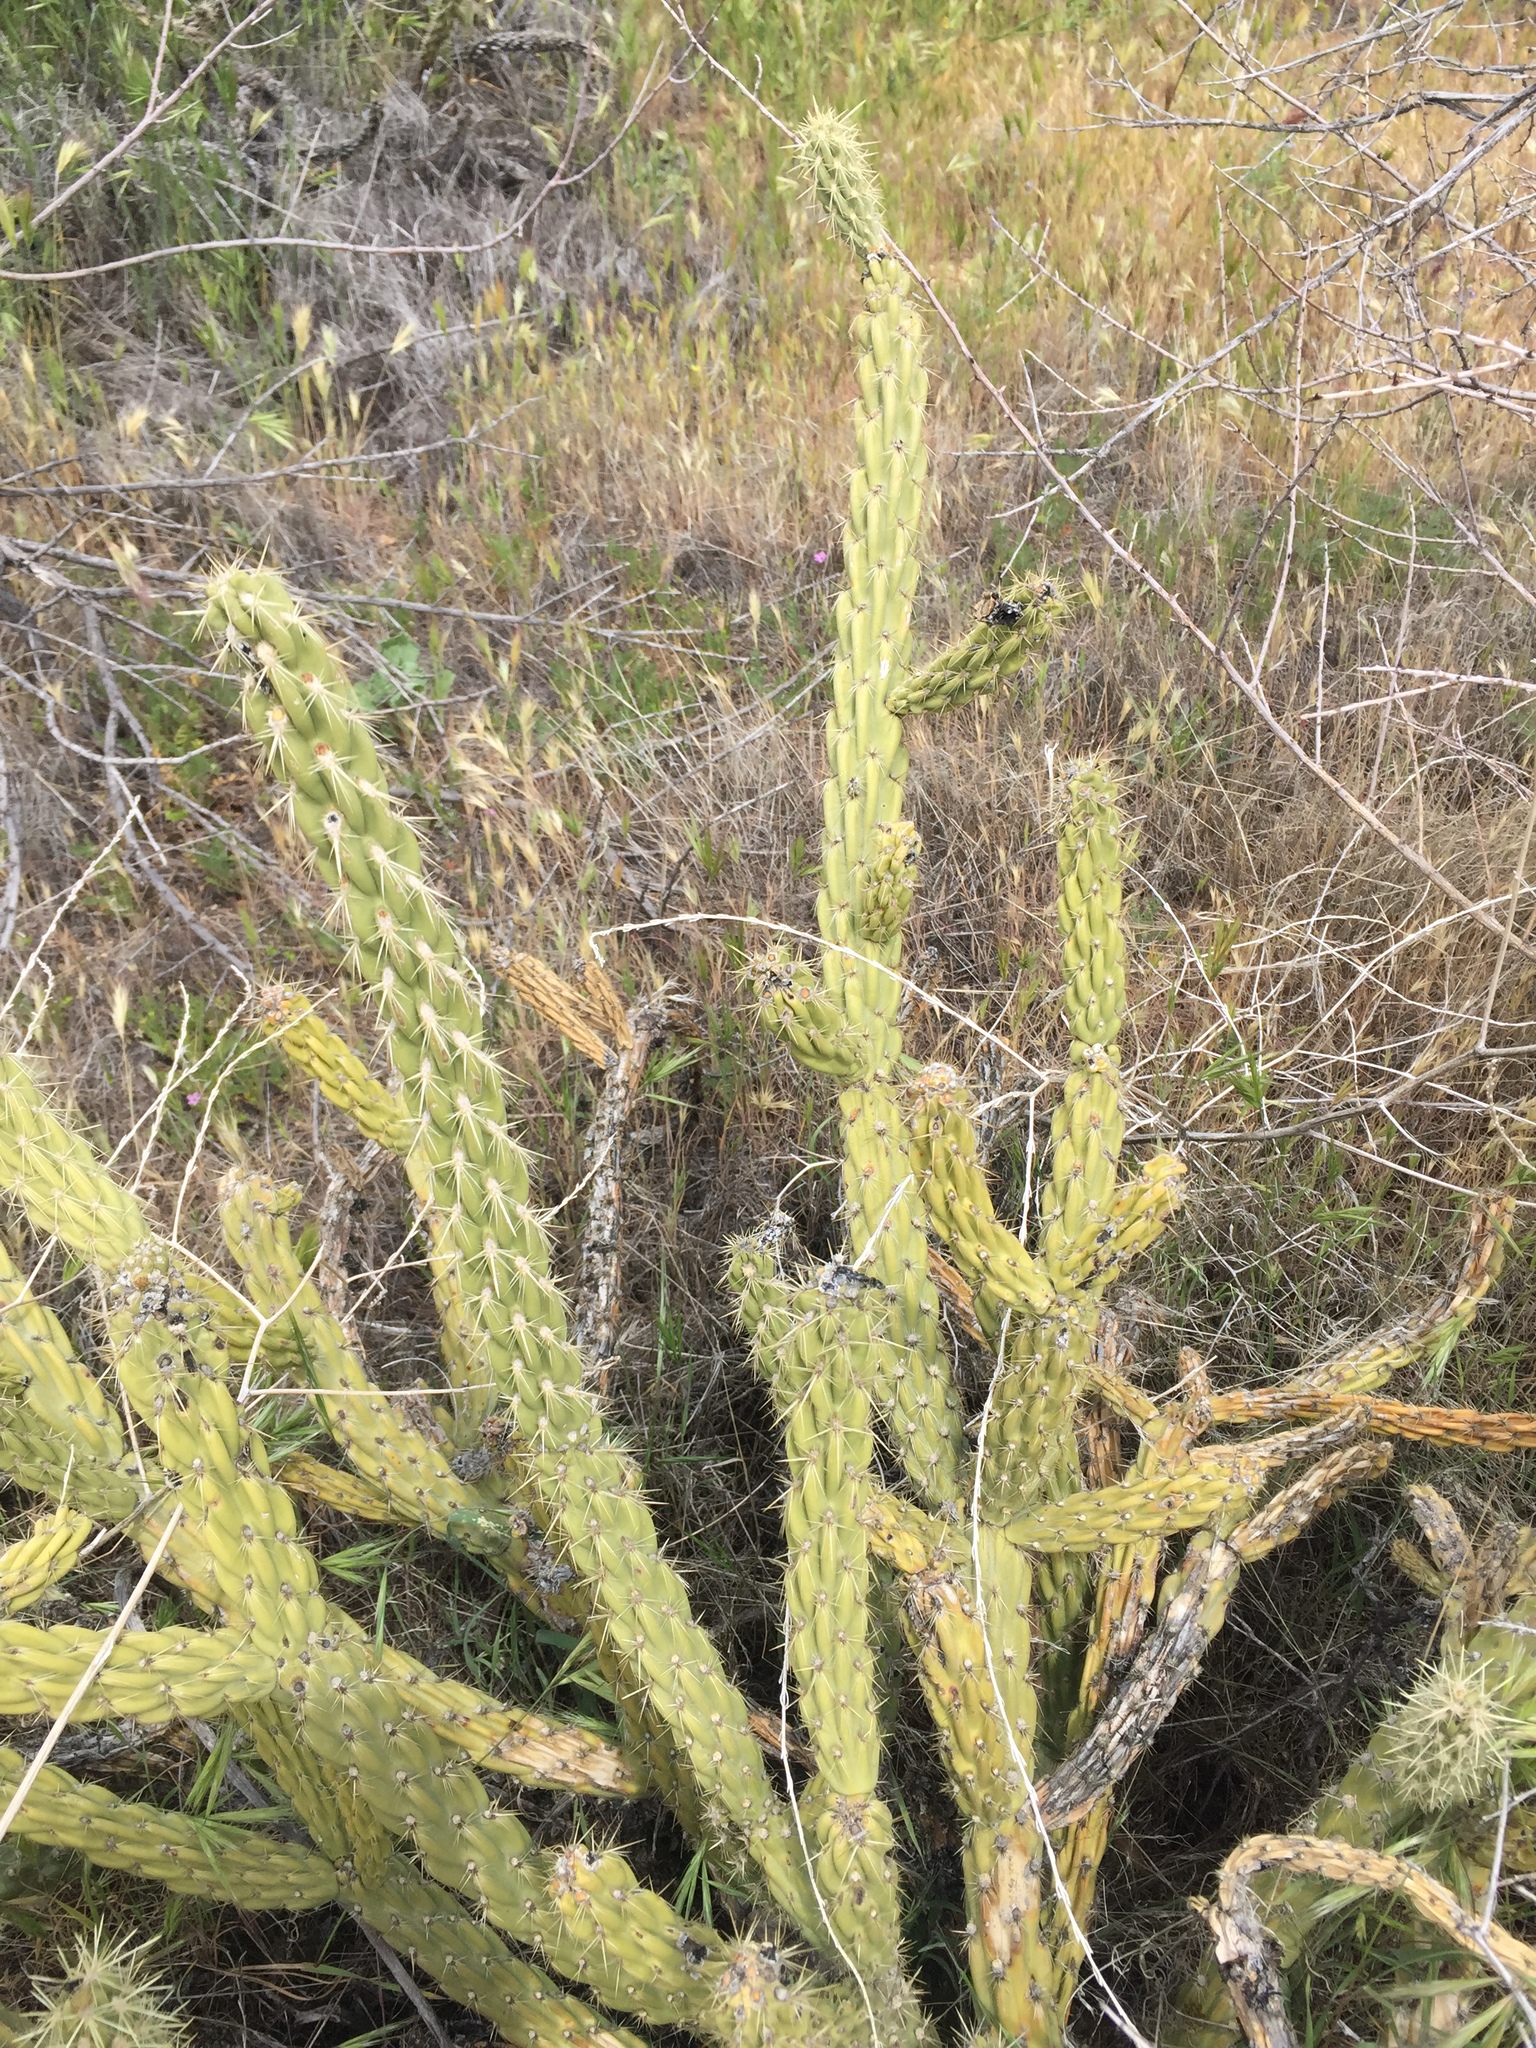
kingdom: Plantae
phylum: Tracheophyta
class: Magnoliopsida
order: Caryophyllales
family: Cactaceae
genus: Cylindropuntia
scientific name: Cylindropuntia bernardina
